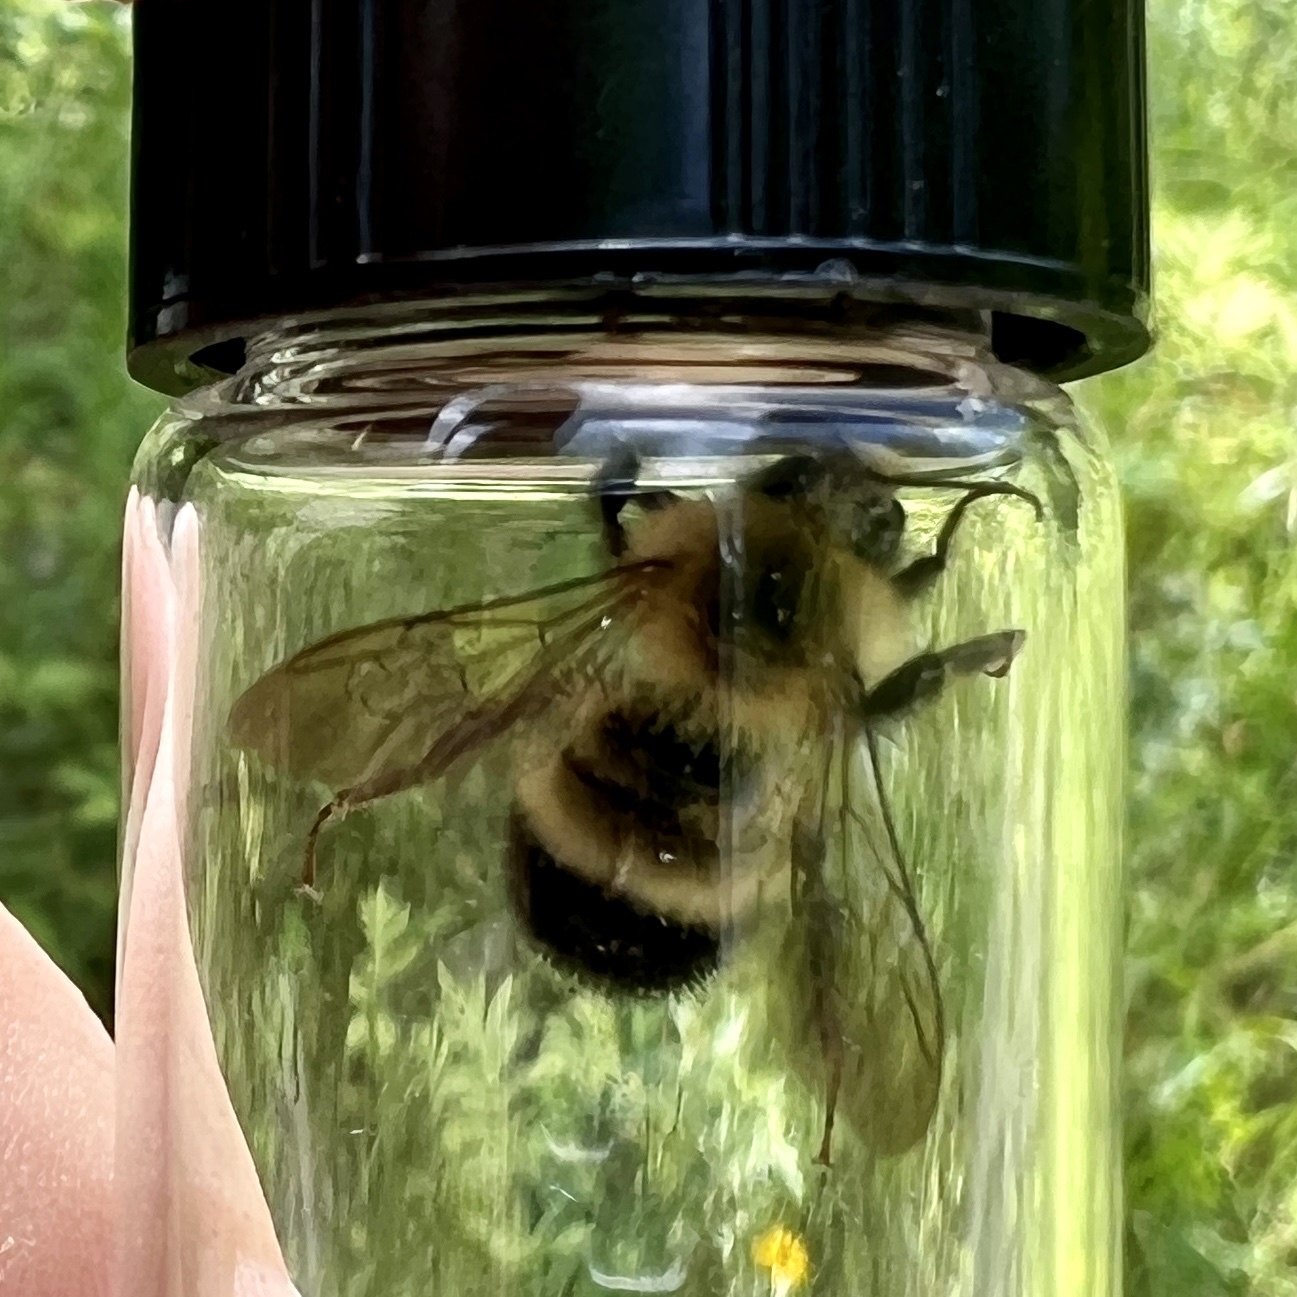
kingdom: Animalia
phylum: Arthropoda
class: Insecta
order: Hymenoptera
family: Apidae
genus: Pyrobombus
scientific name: Pyrobombus
